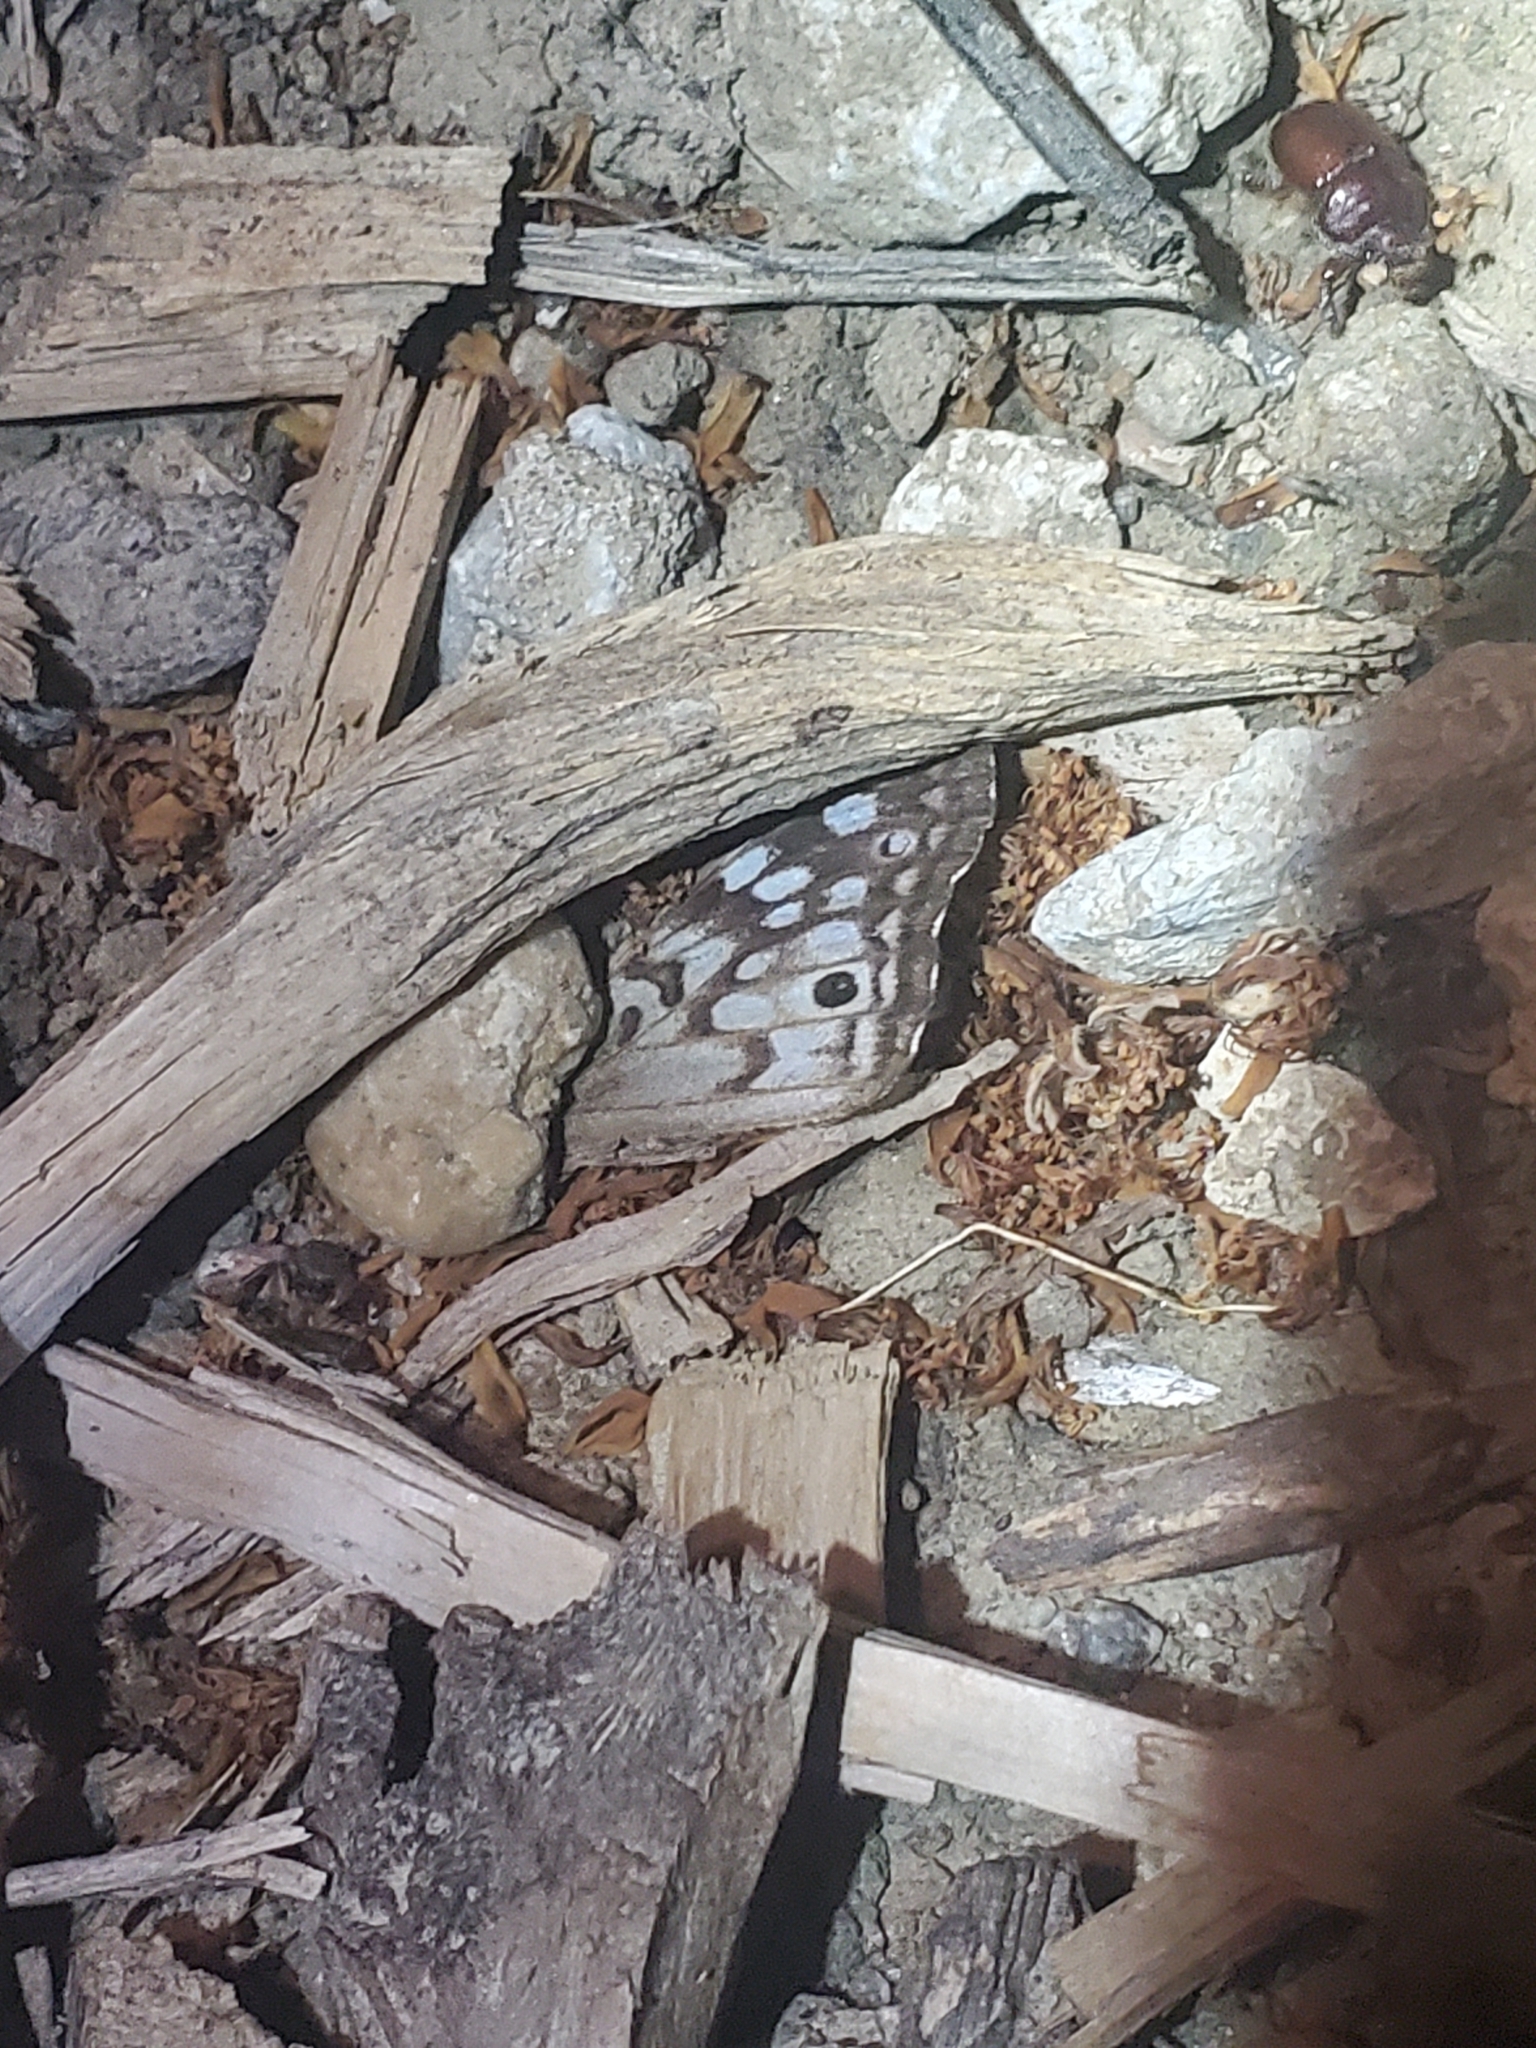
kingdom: Animalia
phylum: Arthropoda
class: Insecta
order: Lepidoptera
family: Nymphalidae
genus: Asterocampa
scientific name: Asterocampa celtis
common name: Hackberry emperor
